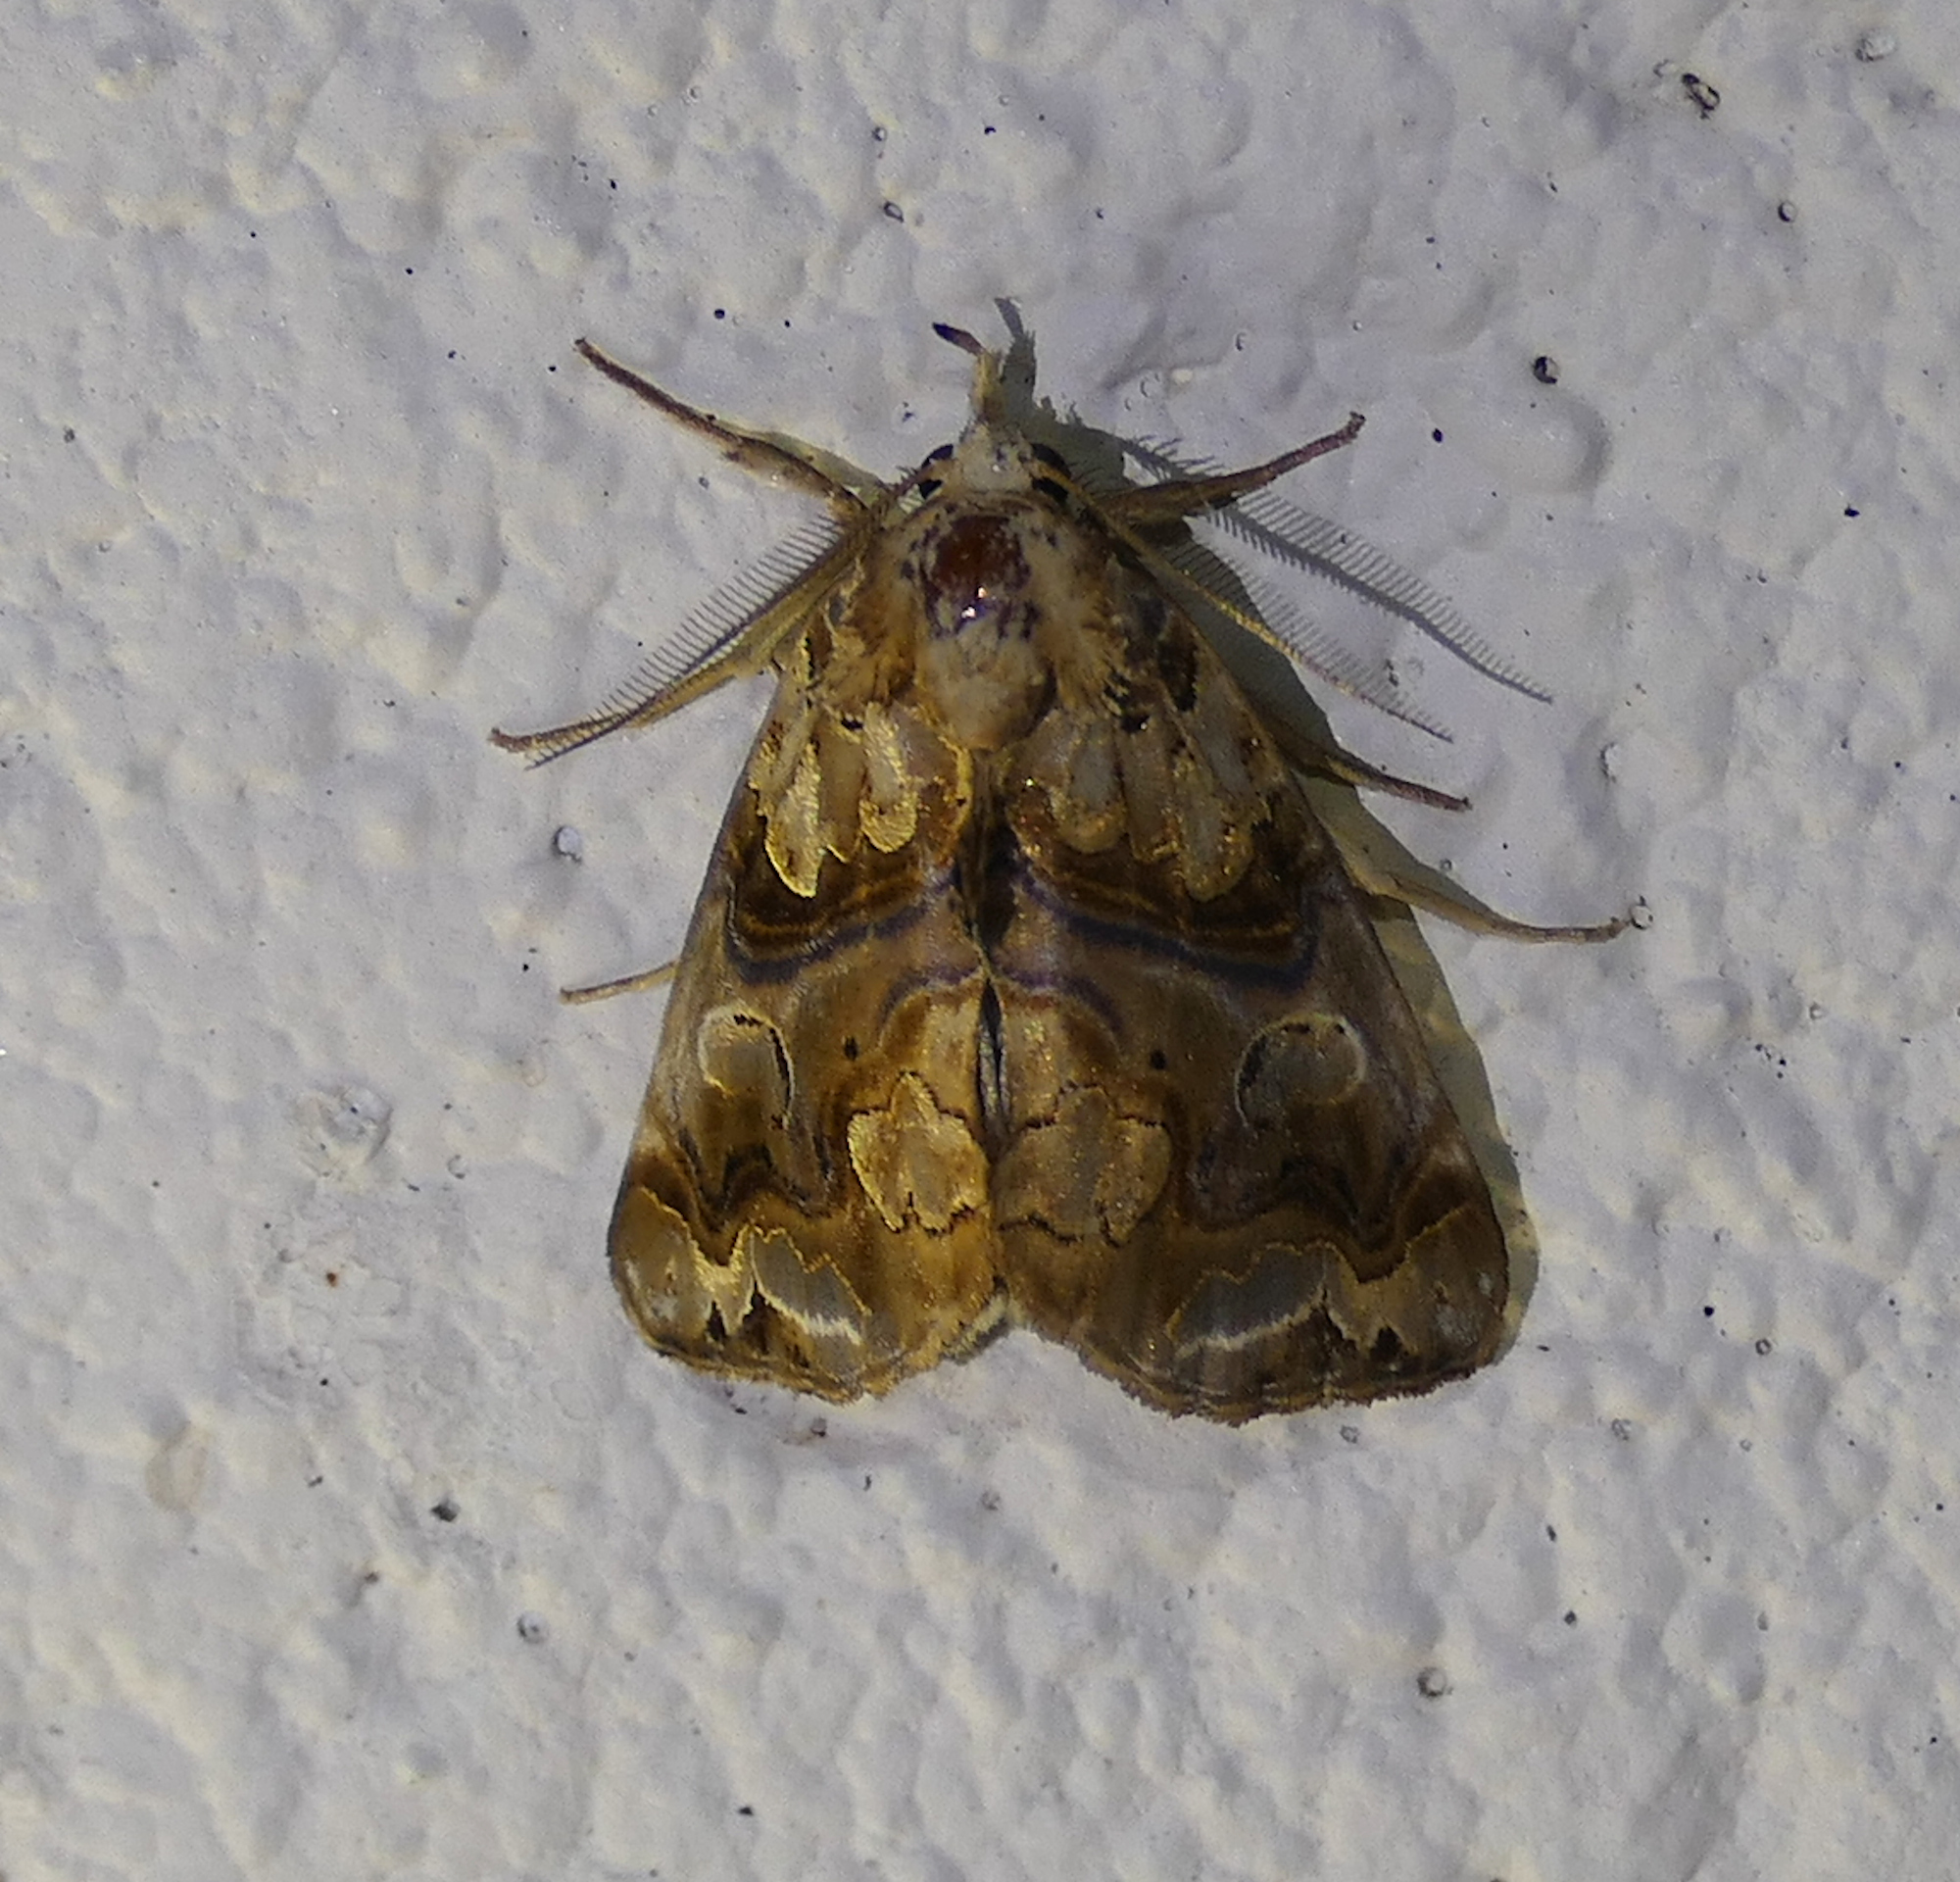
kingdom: Animalia
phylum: Arthropoda
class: Insecta
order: Lepidoptera
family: Erebidae
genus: Plusiodonta
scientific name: Plusiodonta compressipalpis
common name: Moonseed moth
